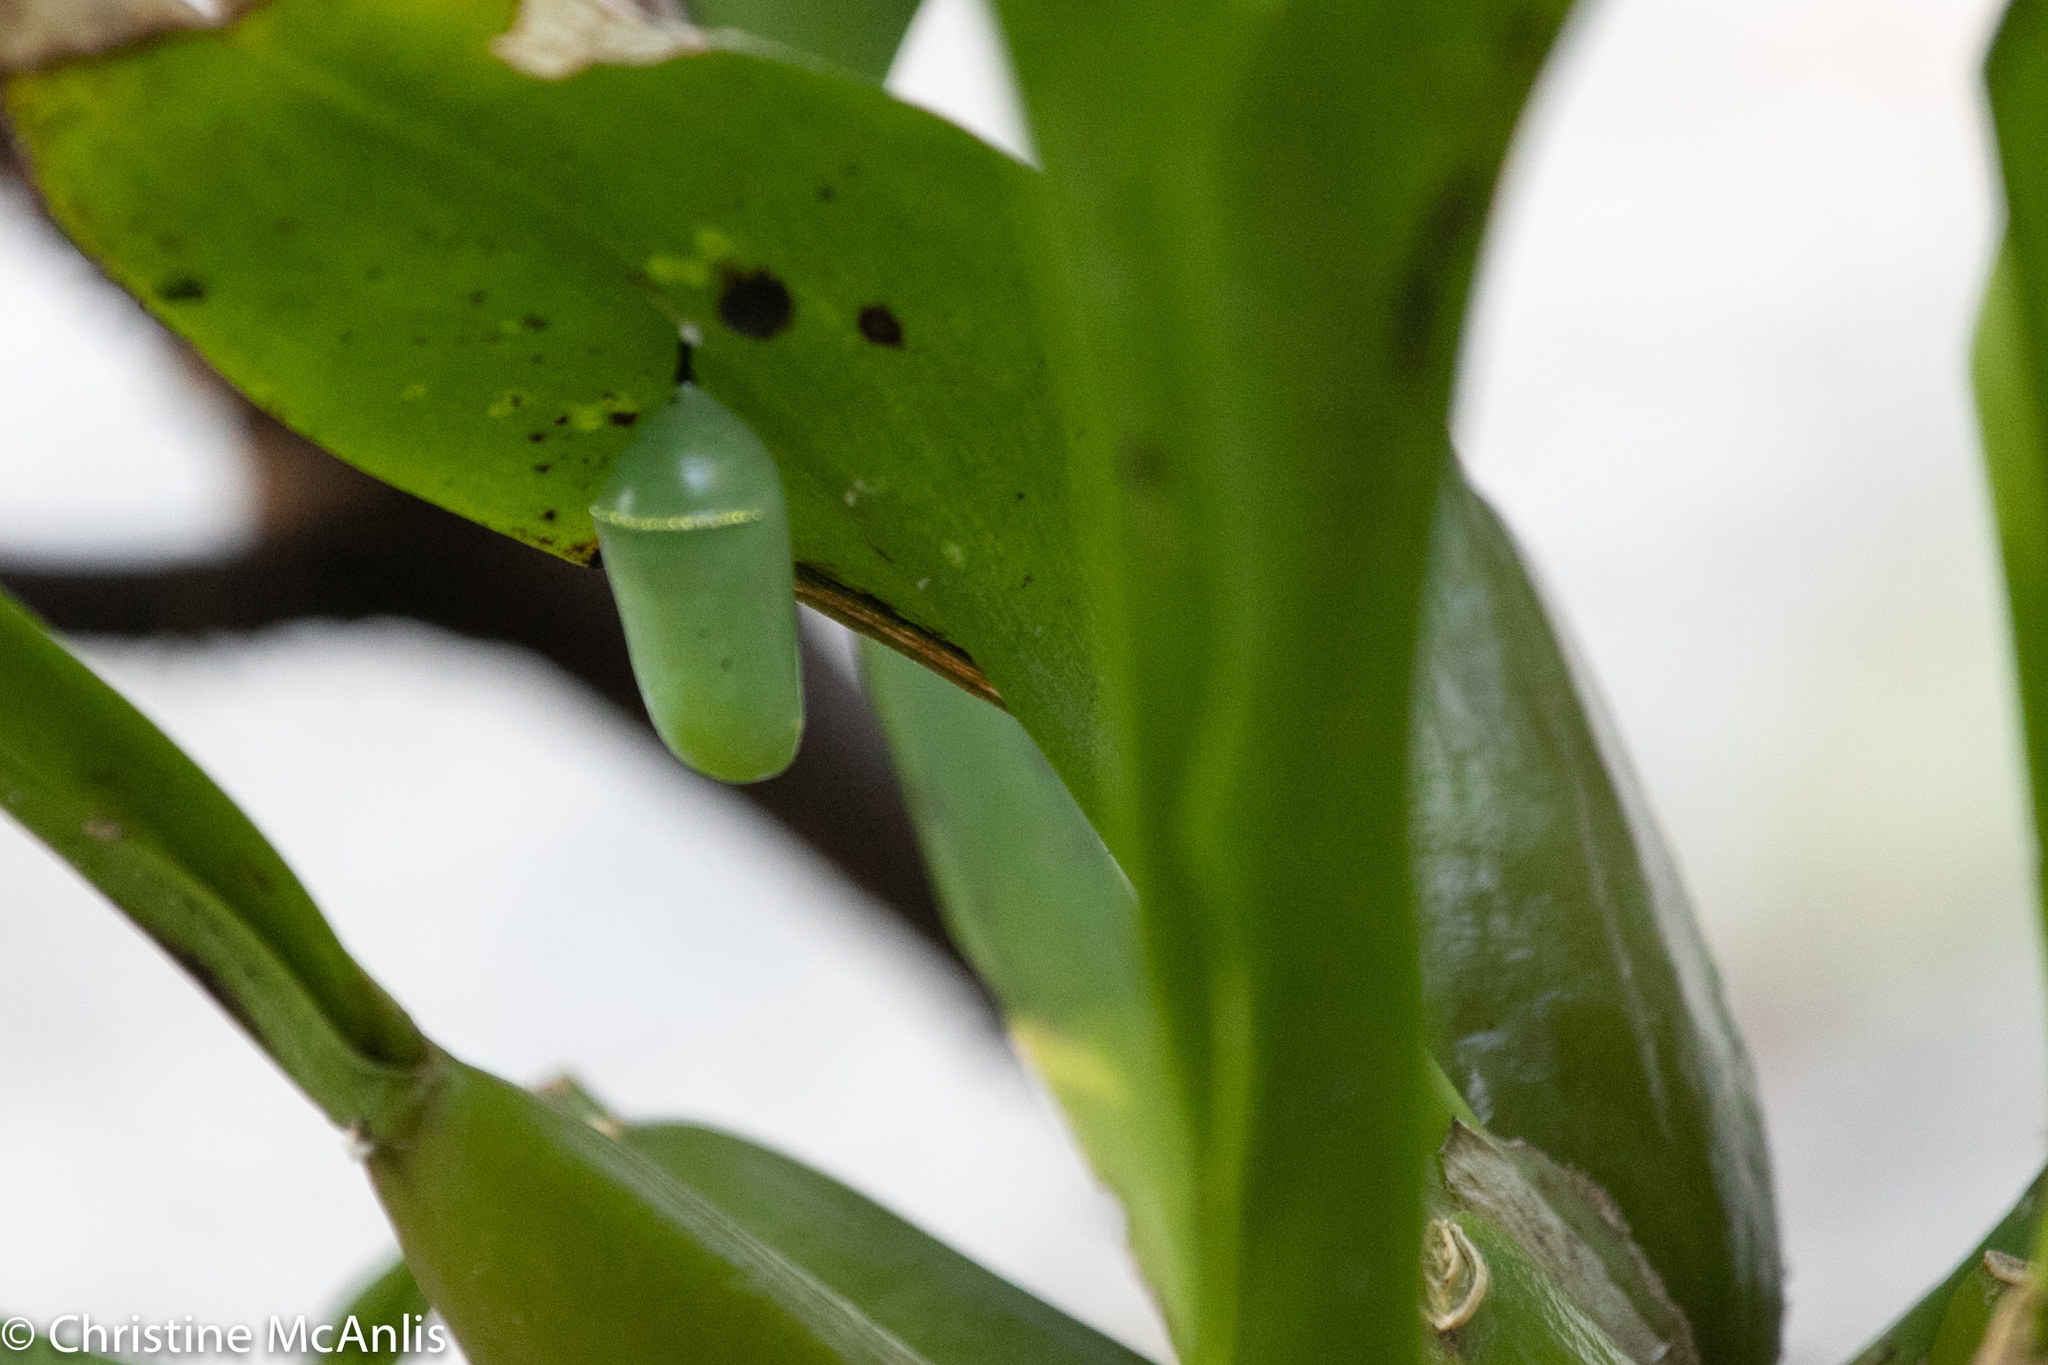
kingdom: Animalia
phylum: Arthropoda
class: Insecta
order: Lepidoptera
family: Nymphalidae
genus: Danaus
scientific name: Danaus plexippus
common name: Monarch
